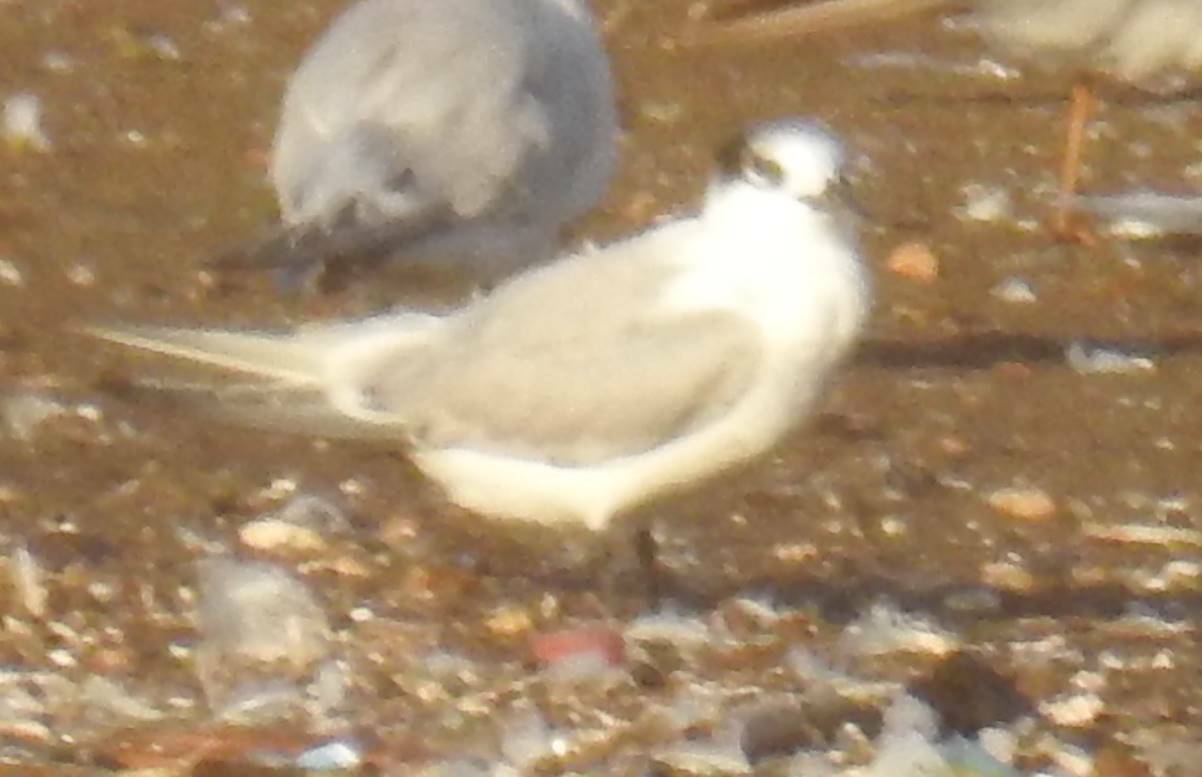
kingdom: Animalia
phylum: Chordata
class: Aves
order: Charadriiformes
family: Laridae
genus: Thalasseus
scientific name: Thalasseus sandvicensis
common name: Sandwich tern
